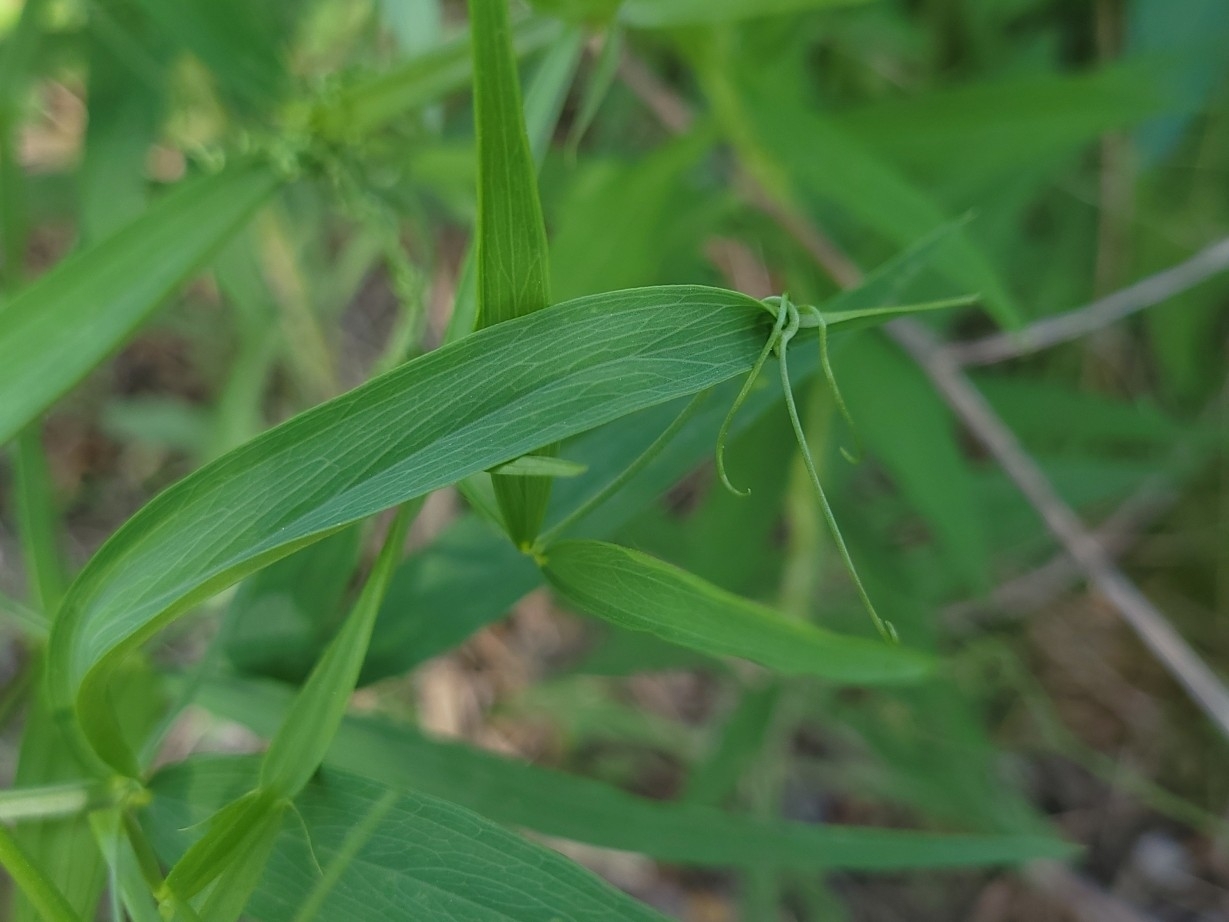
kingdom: Plantae
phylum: Tracheophyta
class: Magnoliopsida
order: Fabales
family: Fabaceae
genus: Lathyrus
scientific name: Lathyrus sylvestris
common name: Flat pea
